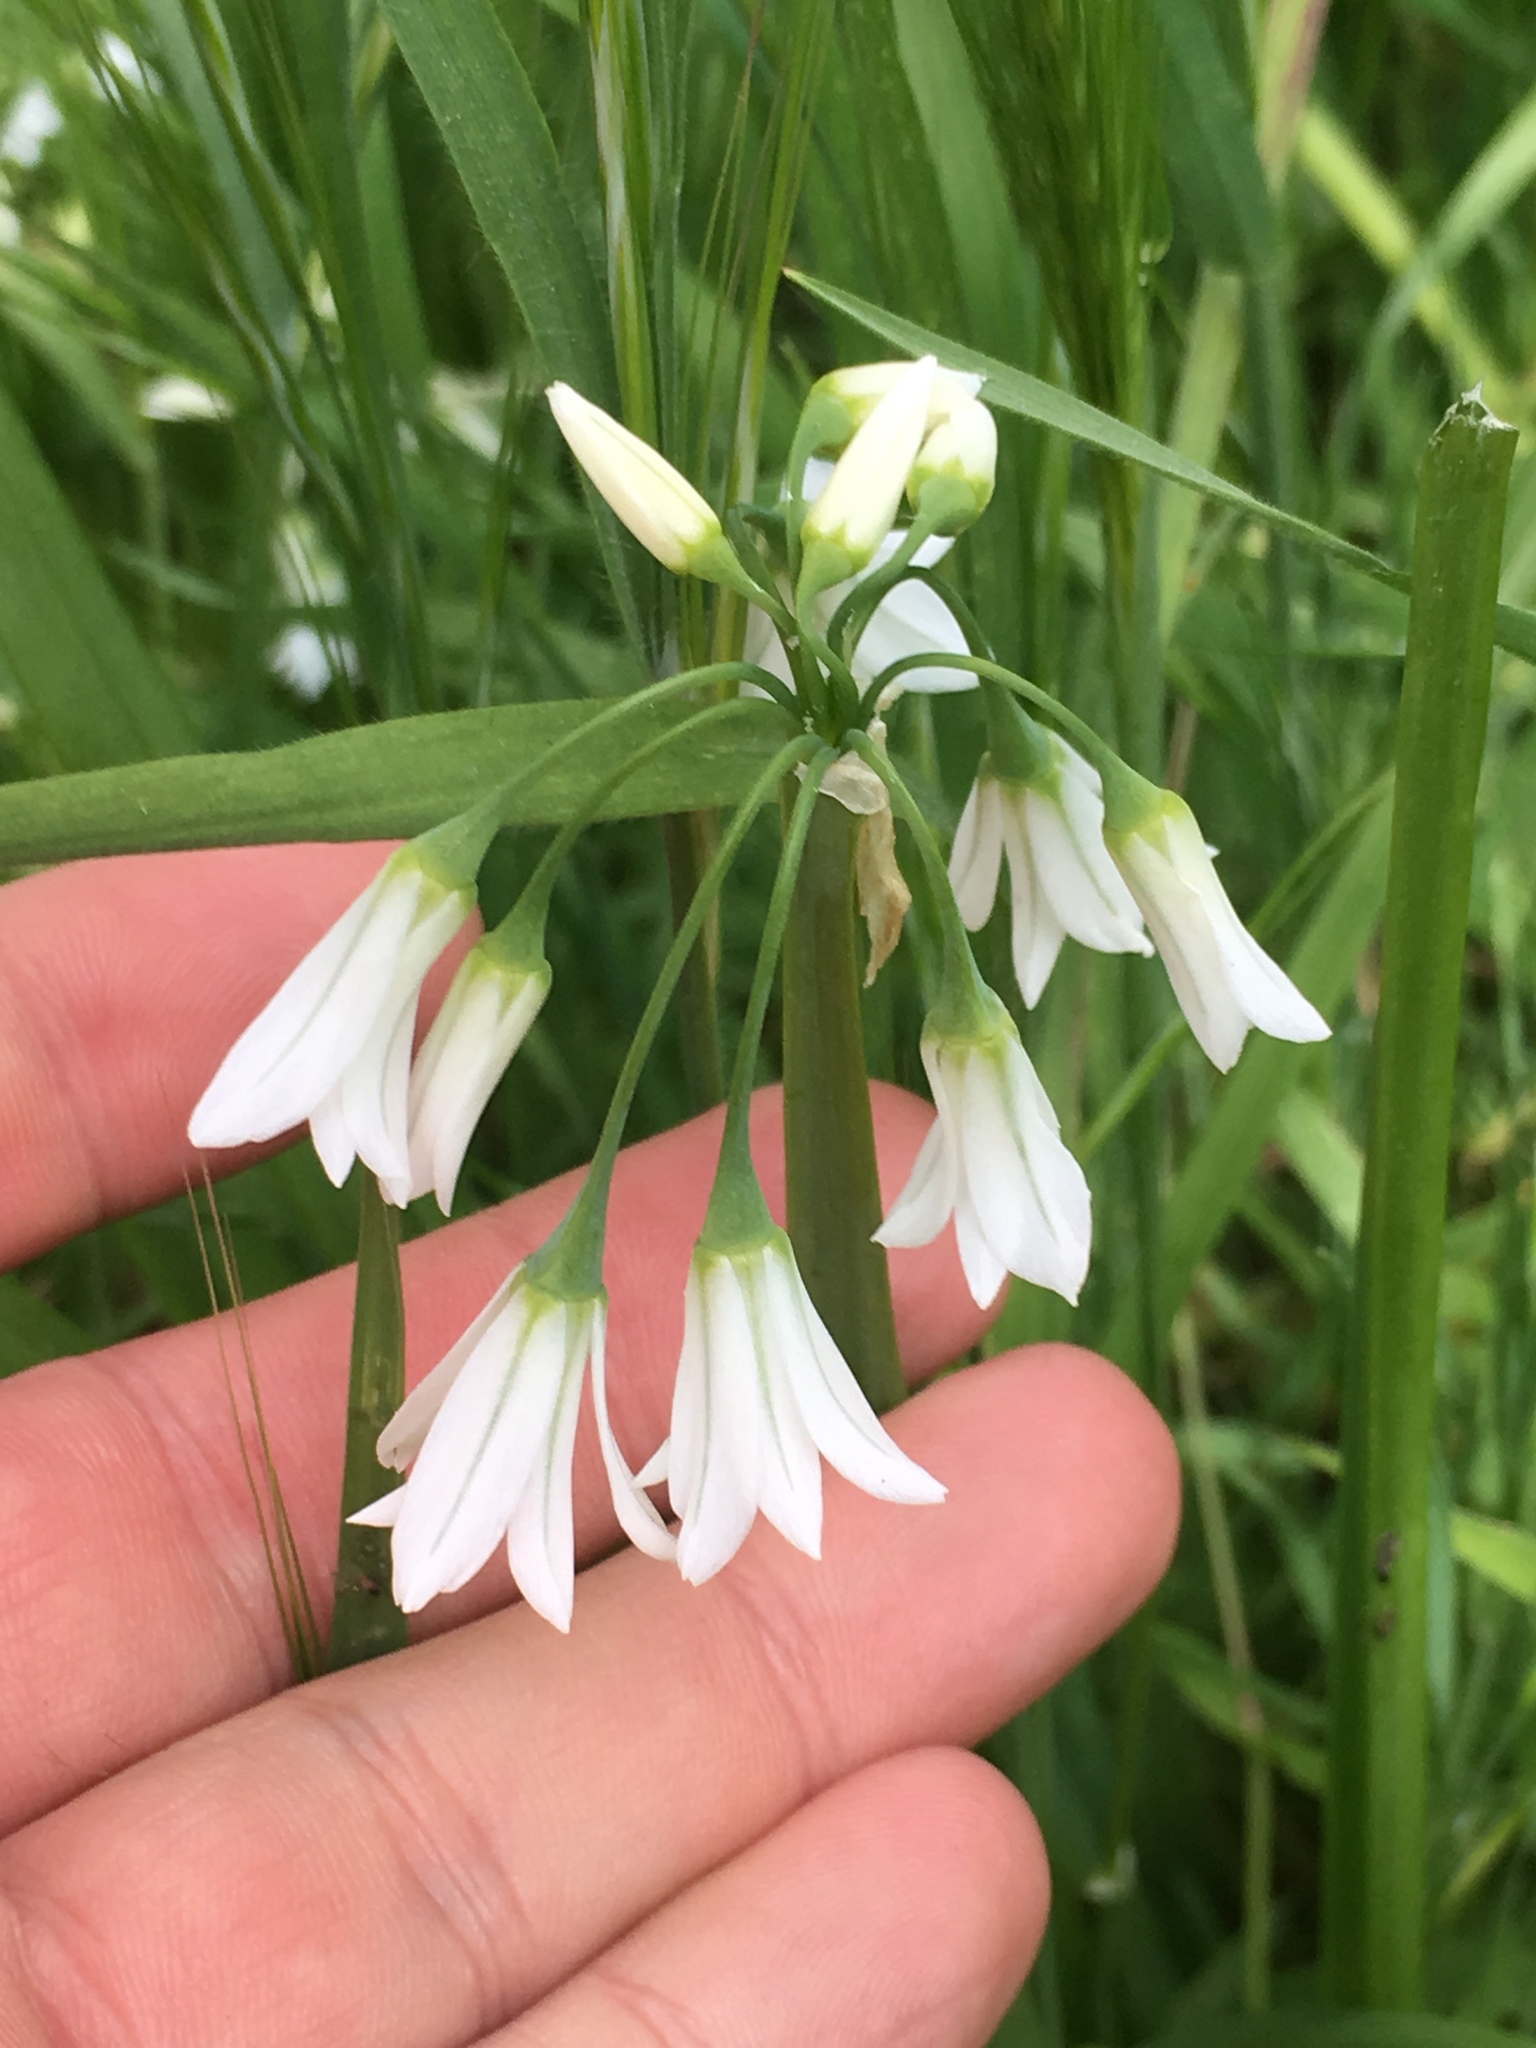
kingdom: Plantae
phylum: Tracheophyta
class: Liliopsida
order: Asparagales
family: Amaryllidaceae
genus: Allium
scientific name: Allium triquetrum
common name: Three-cornered garlic
